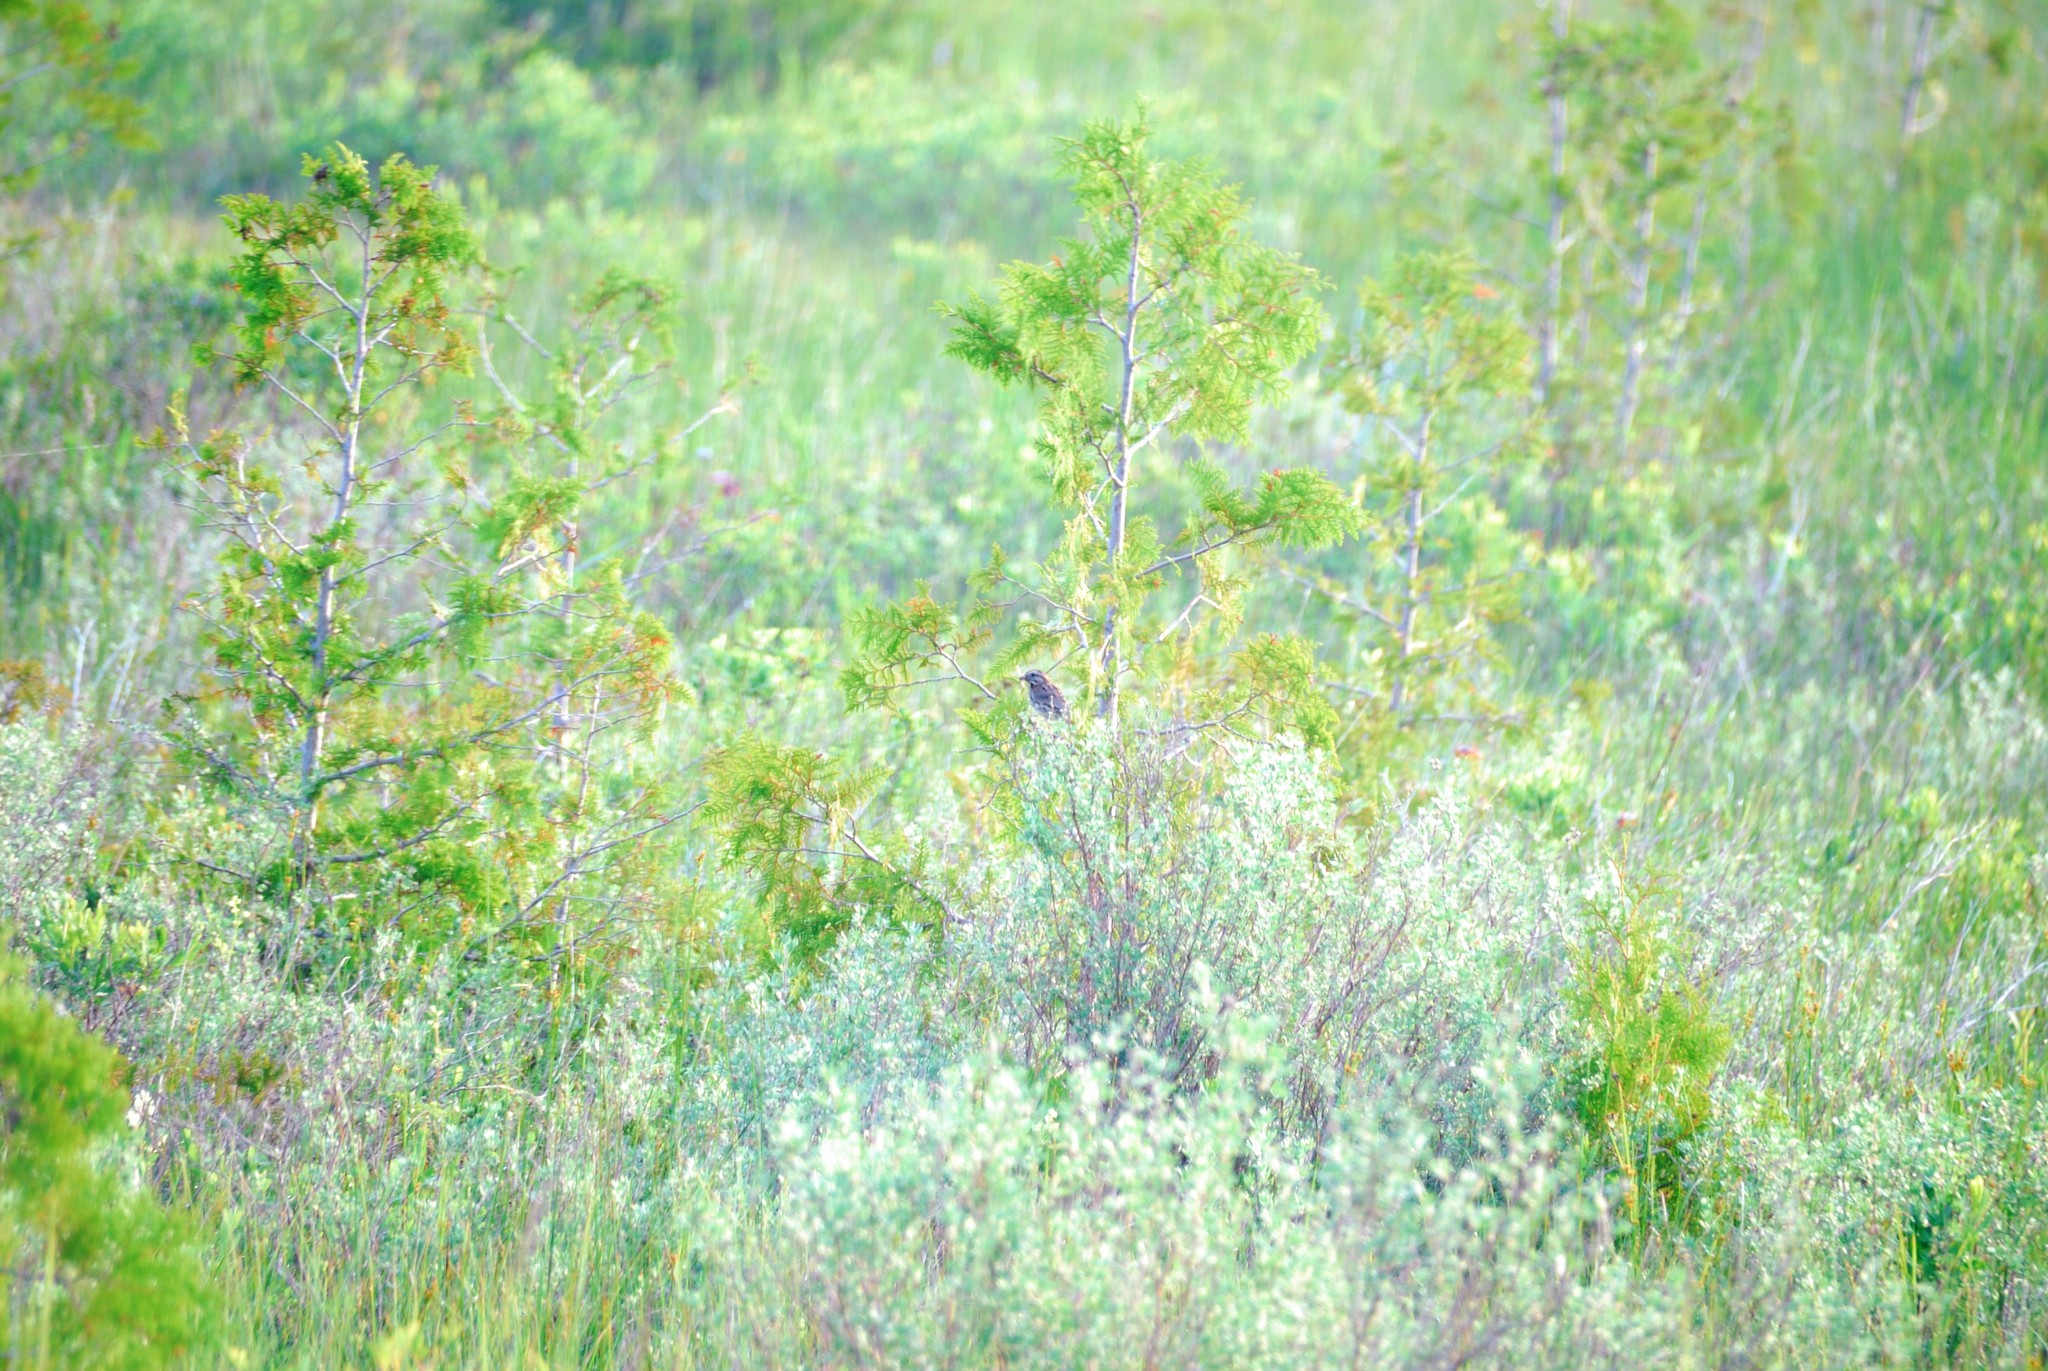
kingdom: Animalia
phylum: Chordata
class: Aves
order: Passeriformes
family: Passerellidae
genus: Melospiza
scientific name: Melospiza melodia
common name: Song sparrow
